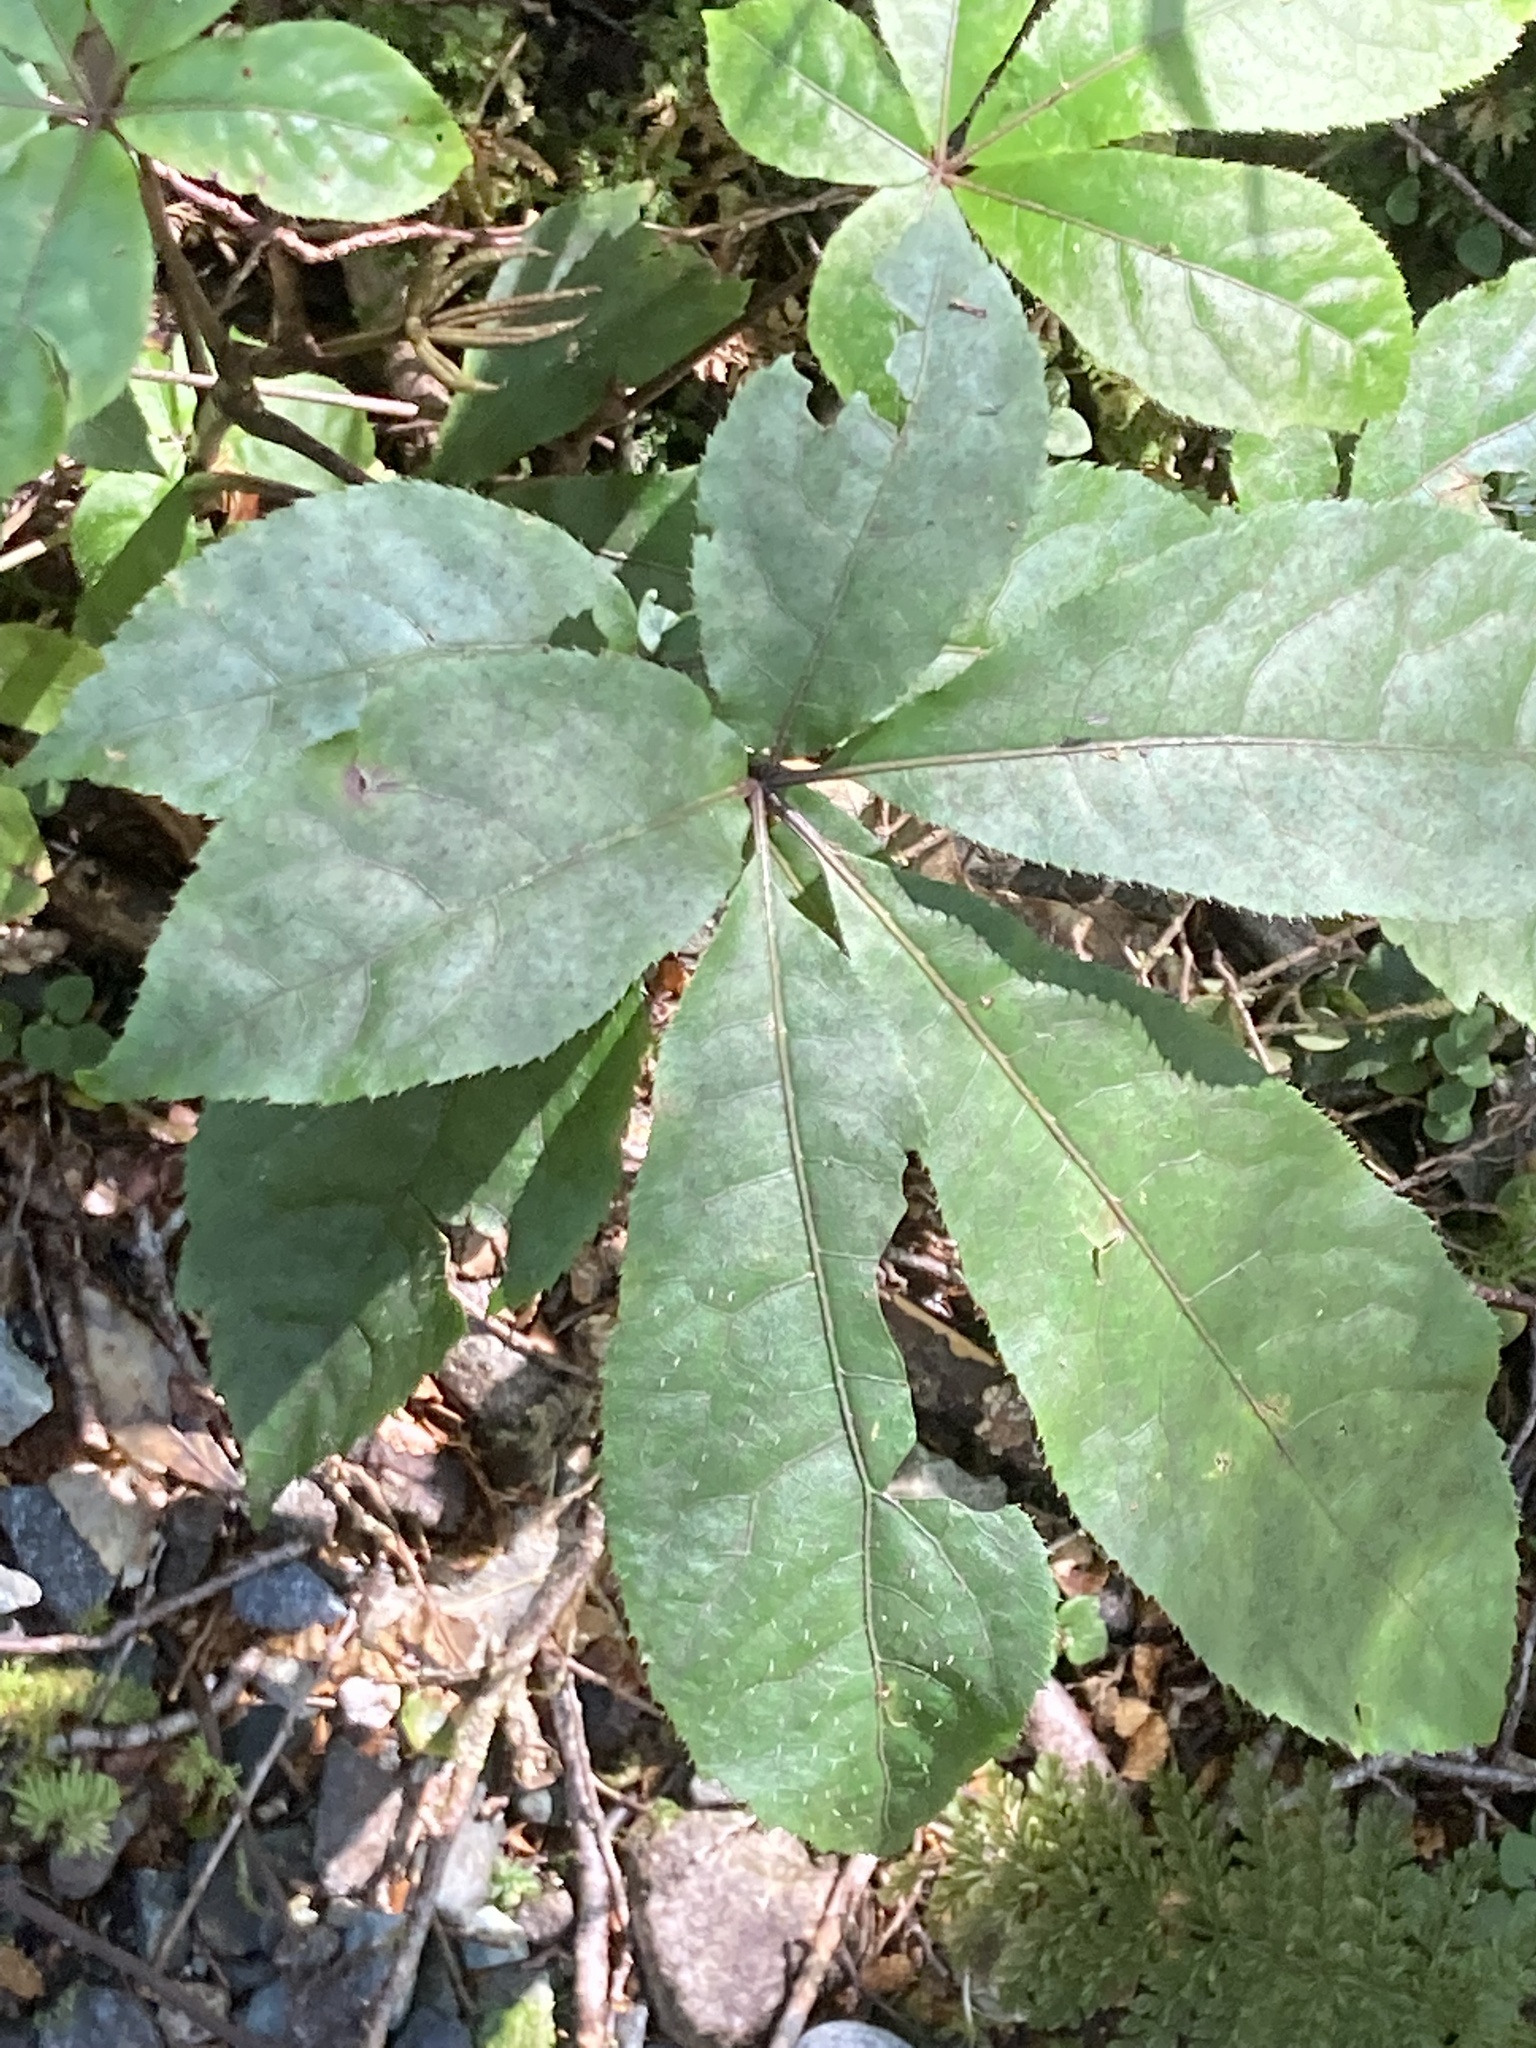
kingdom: Plantae
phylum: Tracheophyta
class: Magnoliopsida
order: Apiales
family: Araliaceae
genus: Schefflera
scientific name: Schefflera digitata
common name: Pate
